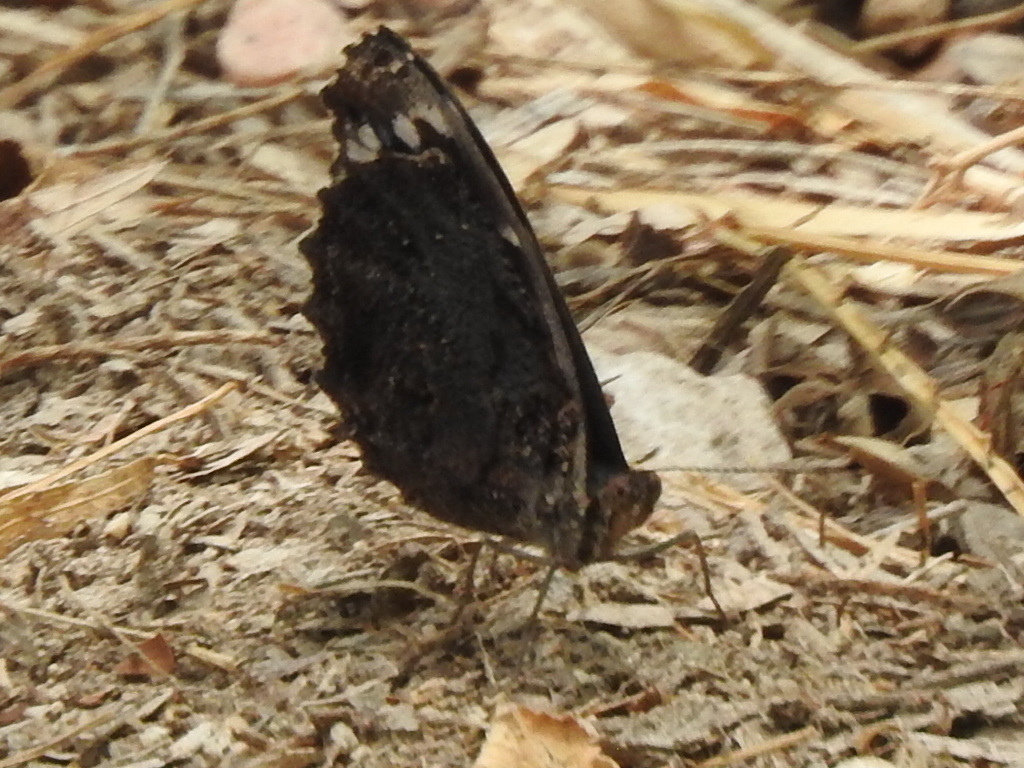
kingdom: Animalia
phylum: Arthropoda
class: Insecta
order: Lepidoptera
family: Nymphalidae
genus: Myscelia
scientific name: Myscelia ethusa
